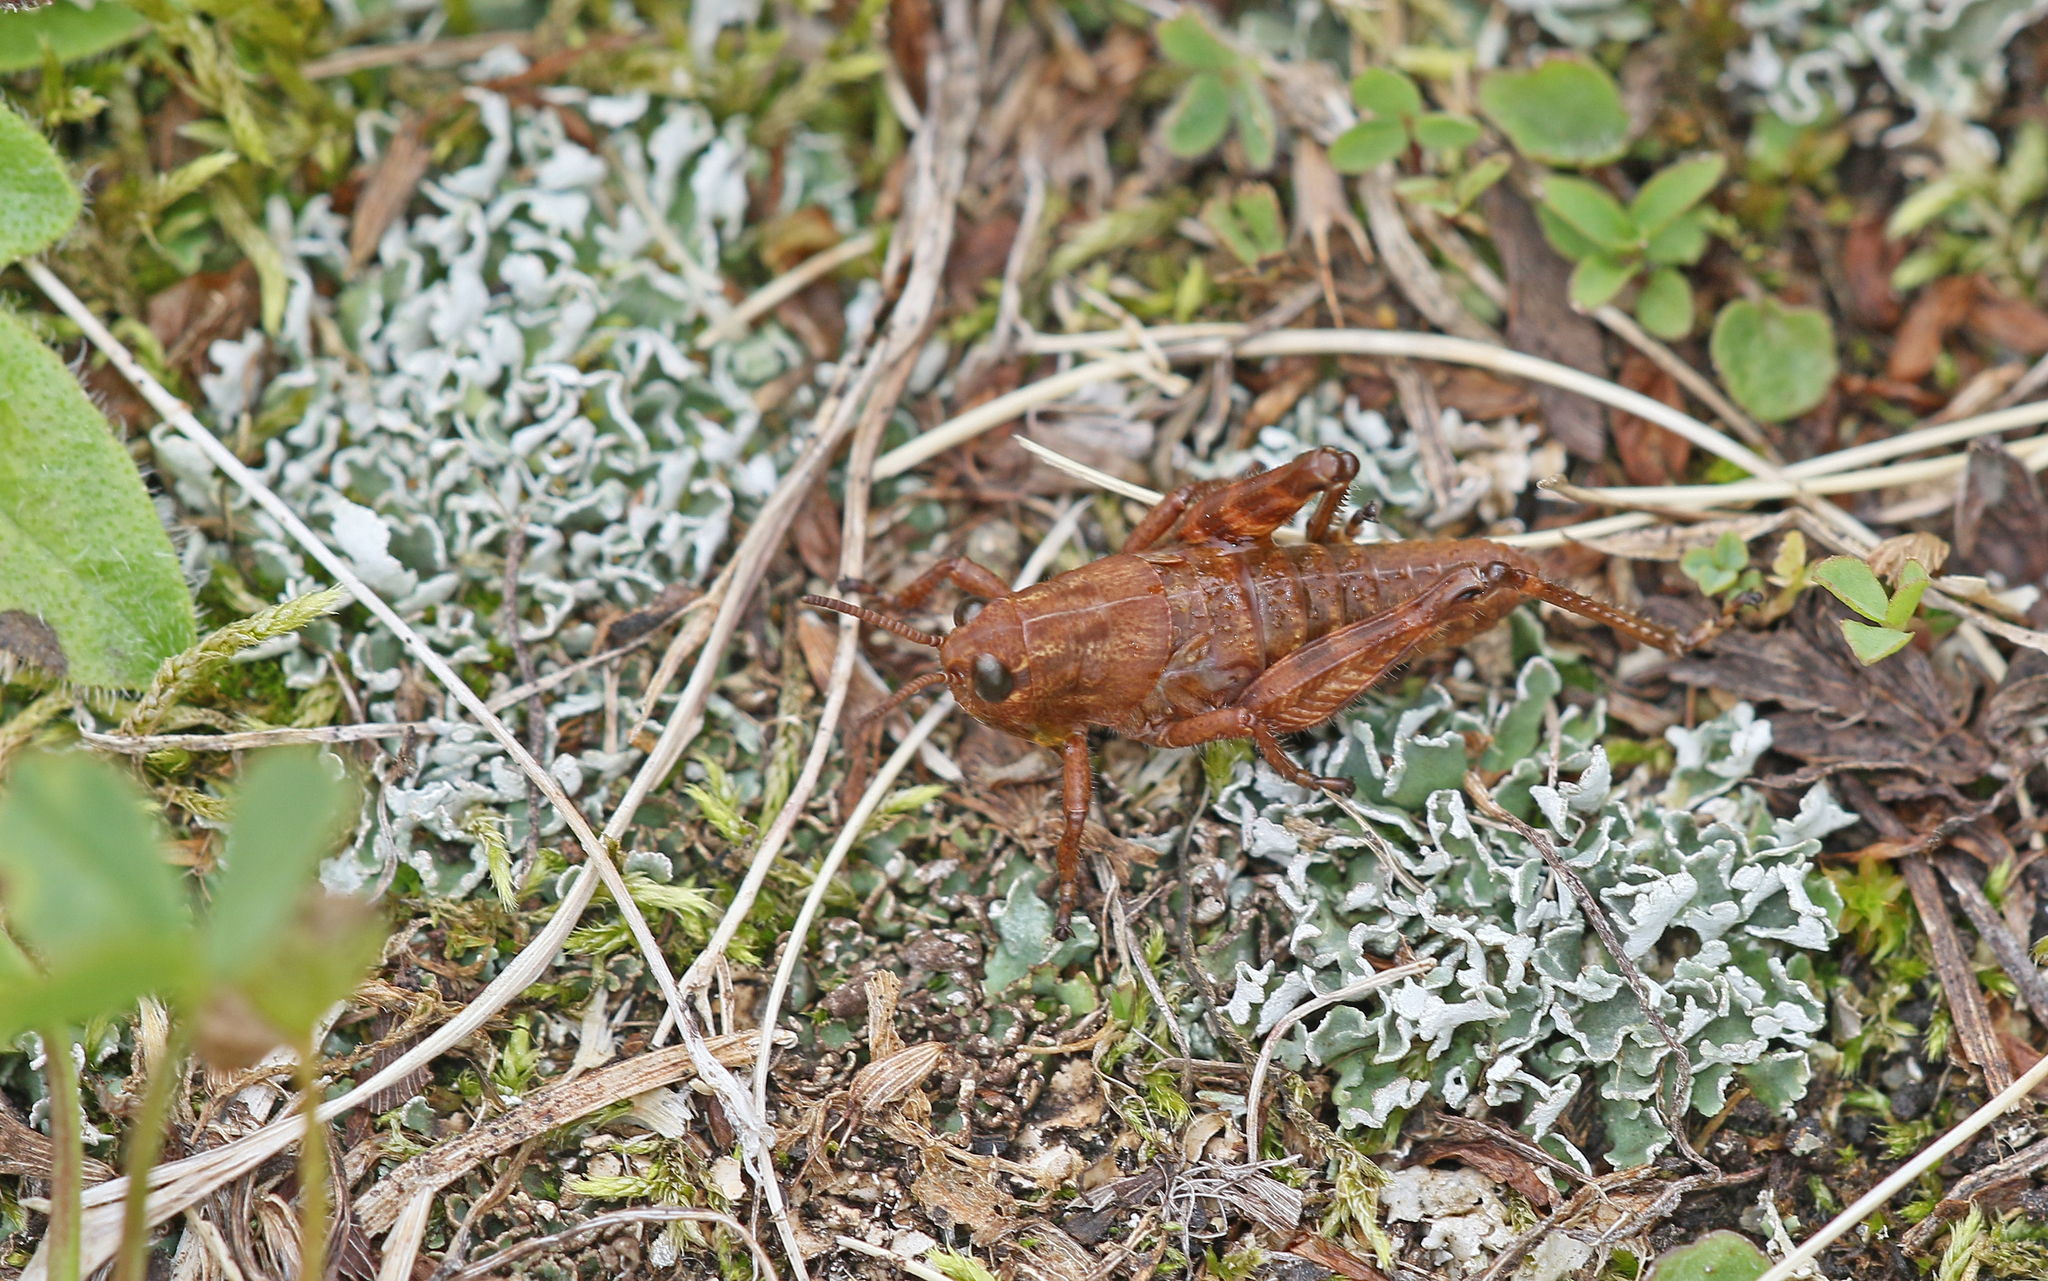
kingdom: Animalia
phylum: Arthropoda
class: Insecta
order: Orthoptera
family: Acrididae
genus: Podisma
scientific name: Podisma pedestris
